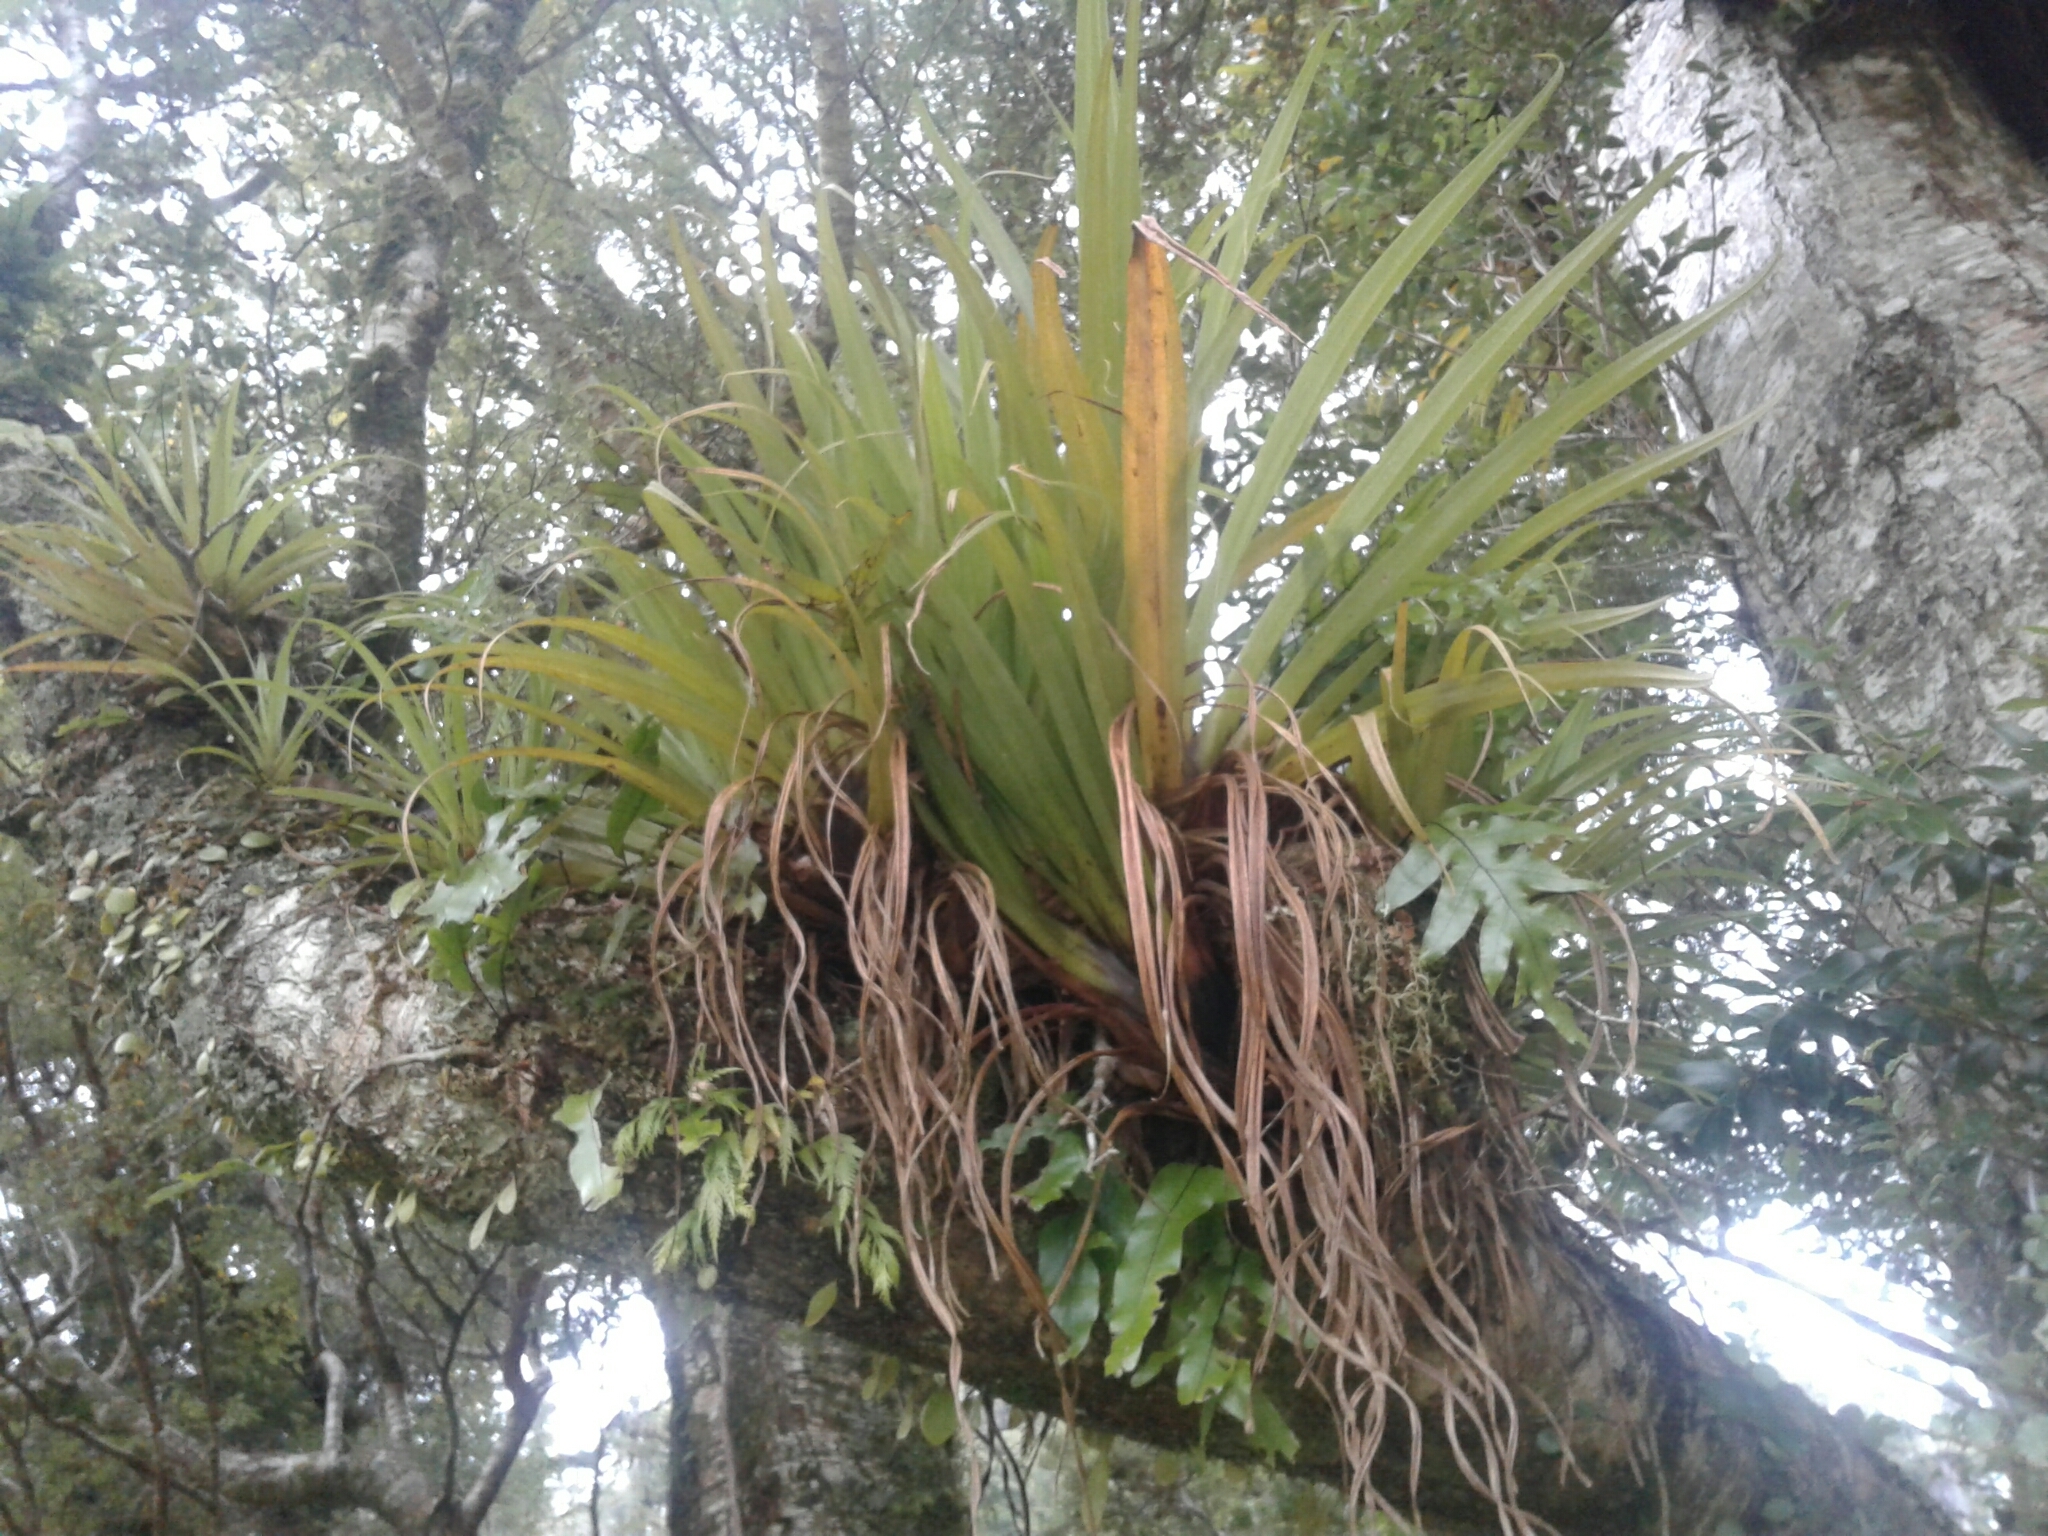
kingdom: Plantae
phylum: Tracheophyta
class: Liliopsida
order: Asparagales
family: Asteliaceae
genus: Astelia
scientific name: Astelia hastata
